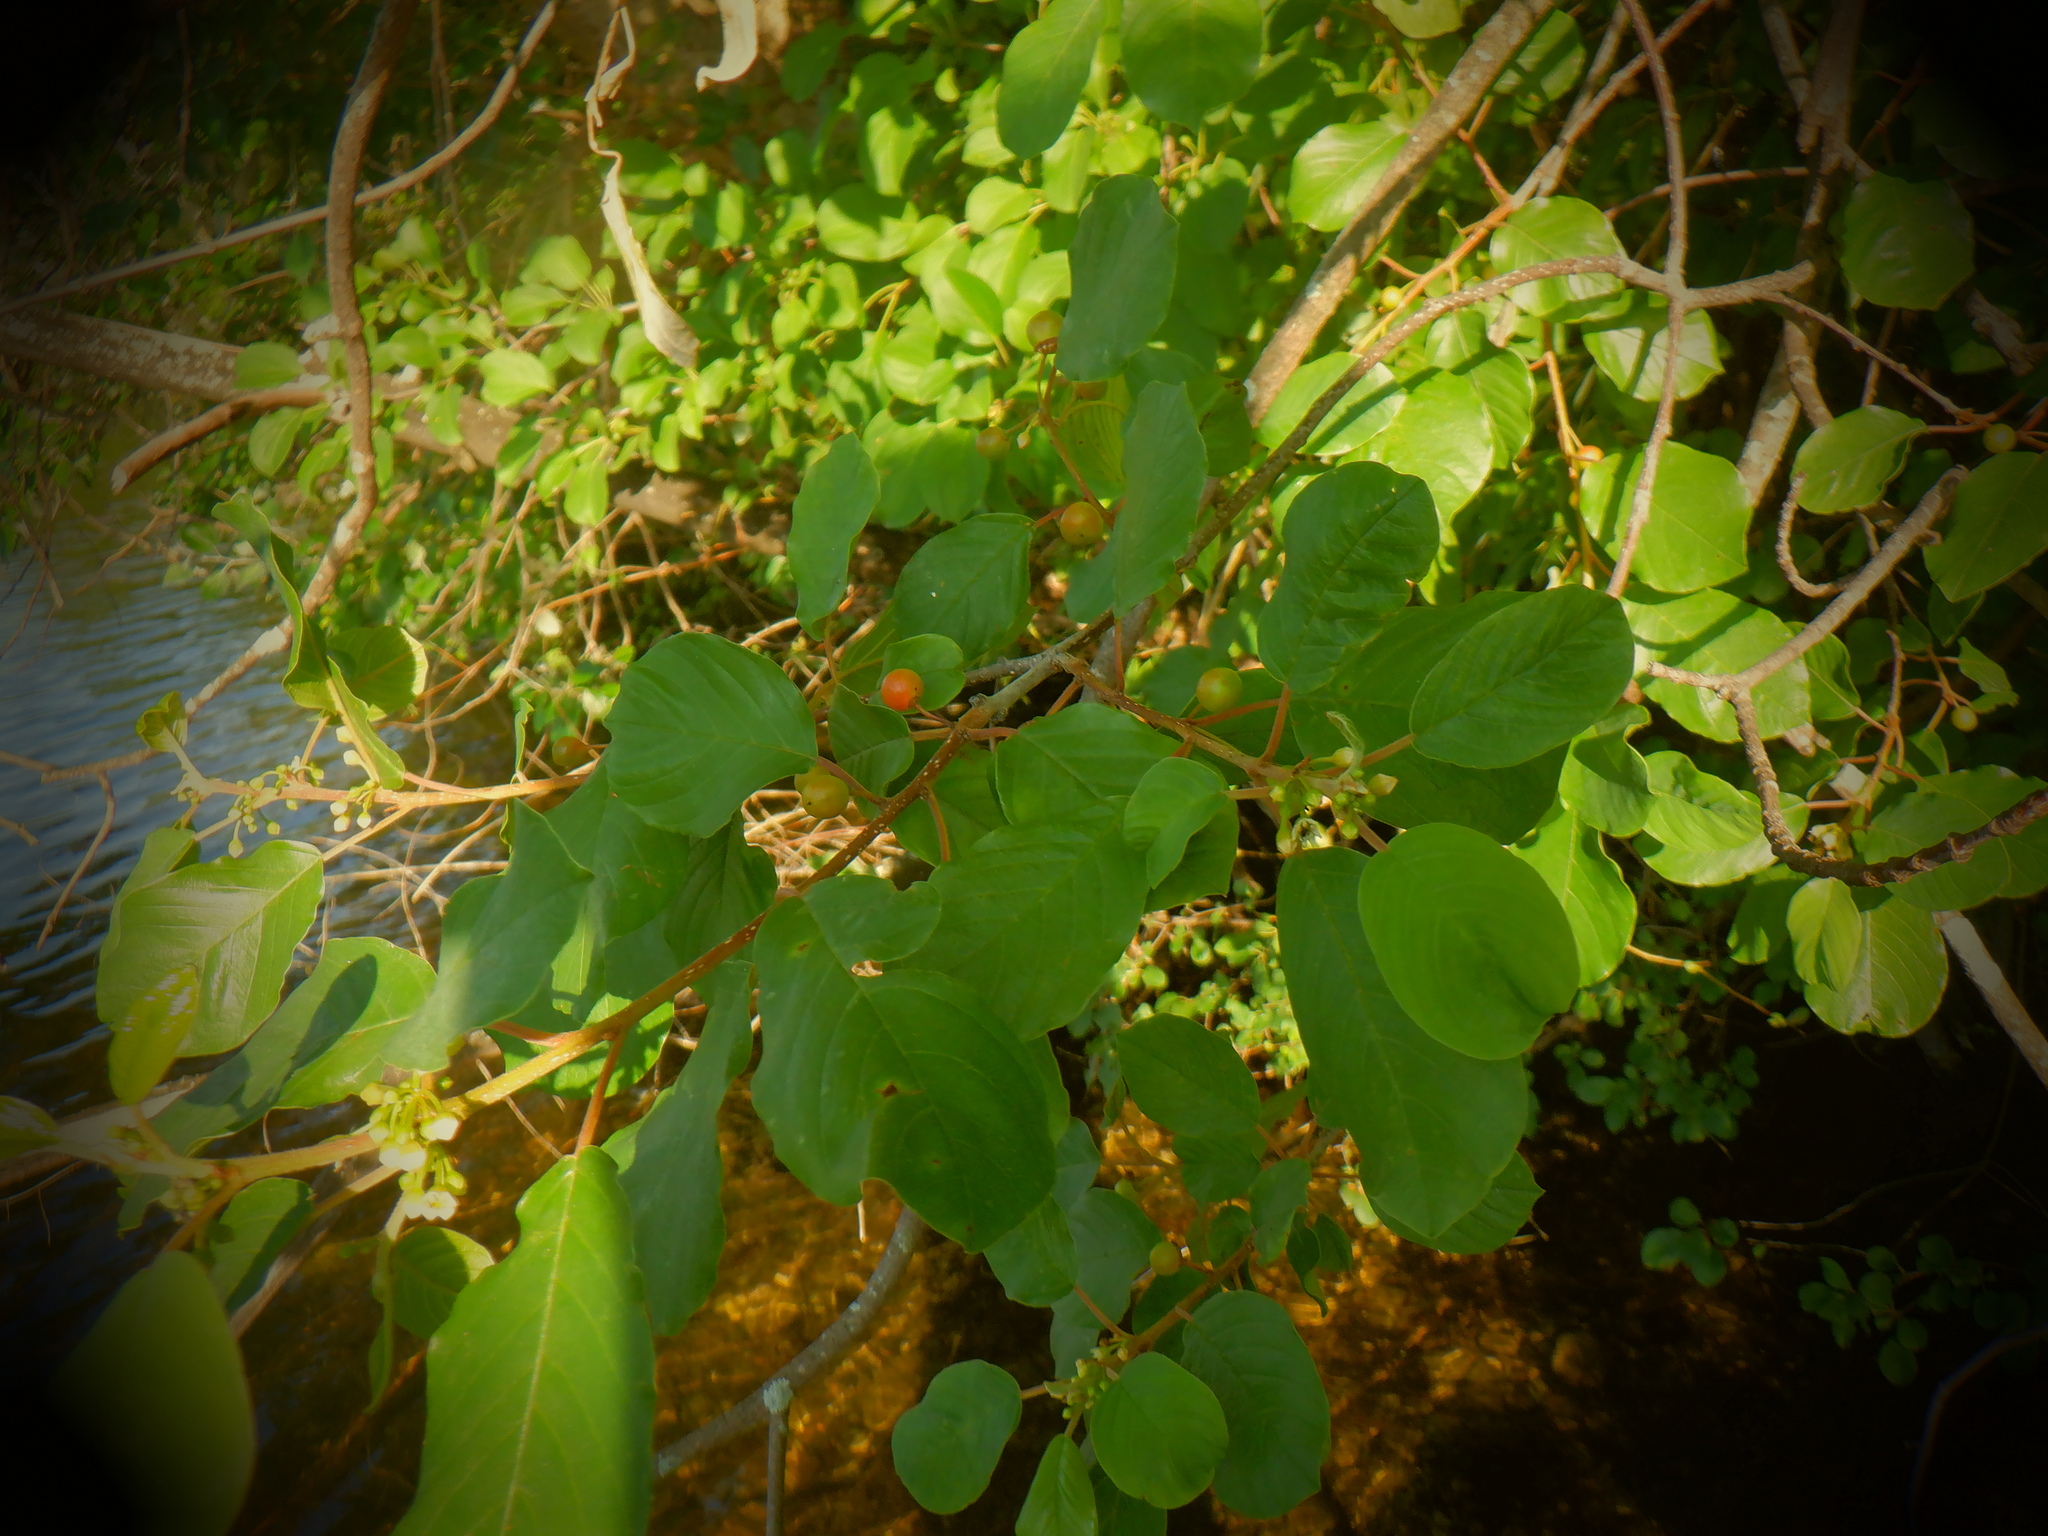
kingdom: Plantae
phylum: Tracheophyta
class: Magnoliopsida
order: Rosales
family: Rhamnaceae
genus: Frangula
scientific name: Frangula alnus
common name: Alder buckthorn
